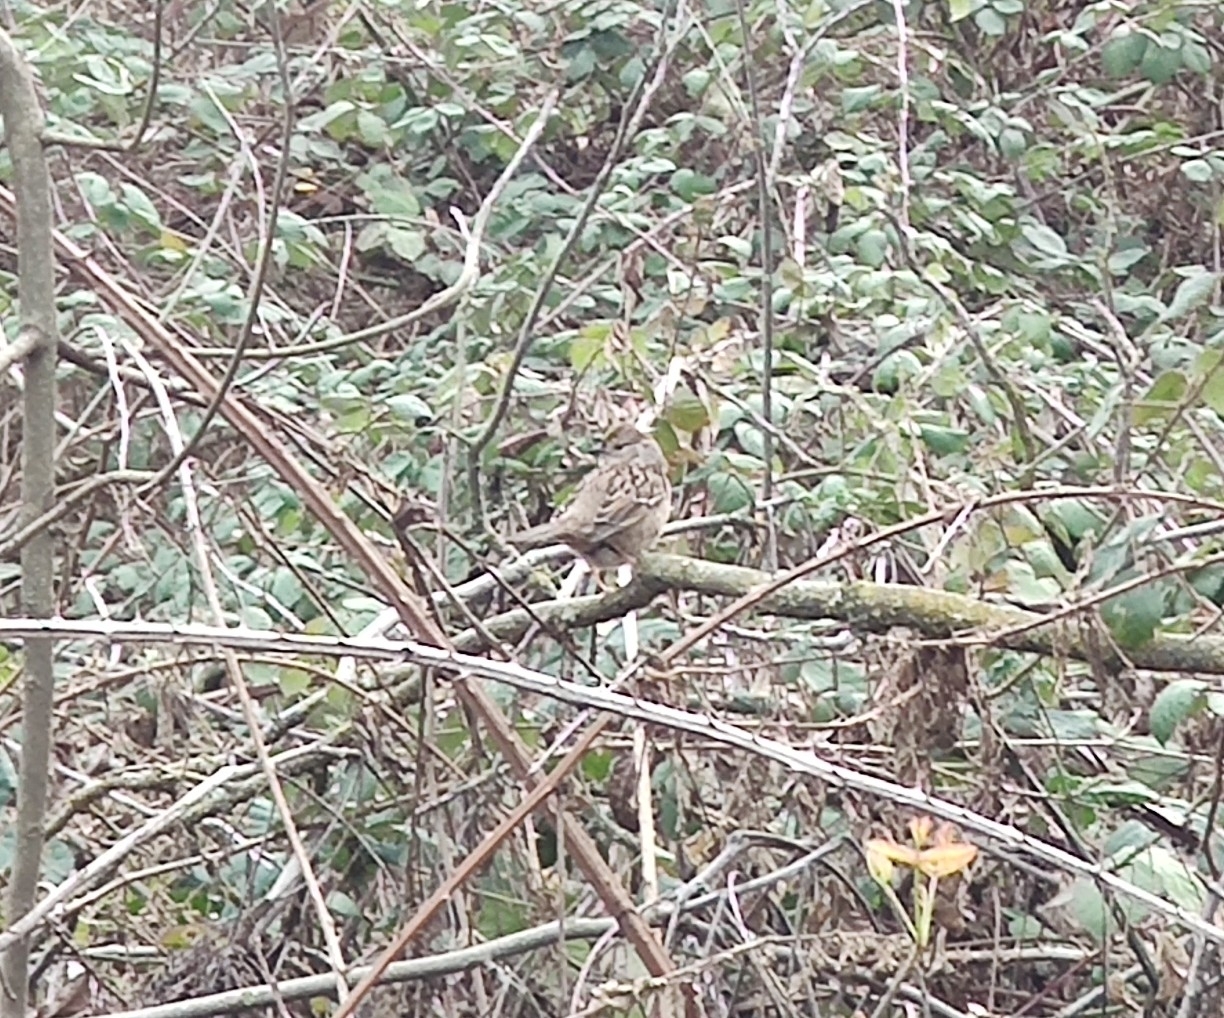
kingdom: Animalia
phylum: Chordata
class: Aves
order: Passeriformes
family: Passerellidae
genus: Zonotrichia
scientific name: Zonotrichia atricapilla
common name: Golden-crowned sparrow
